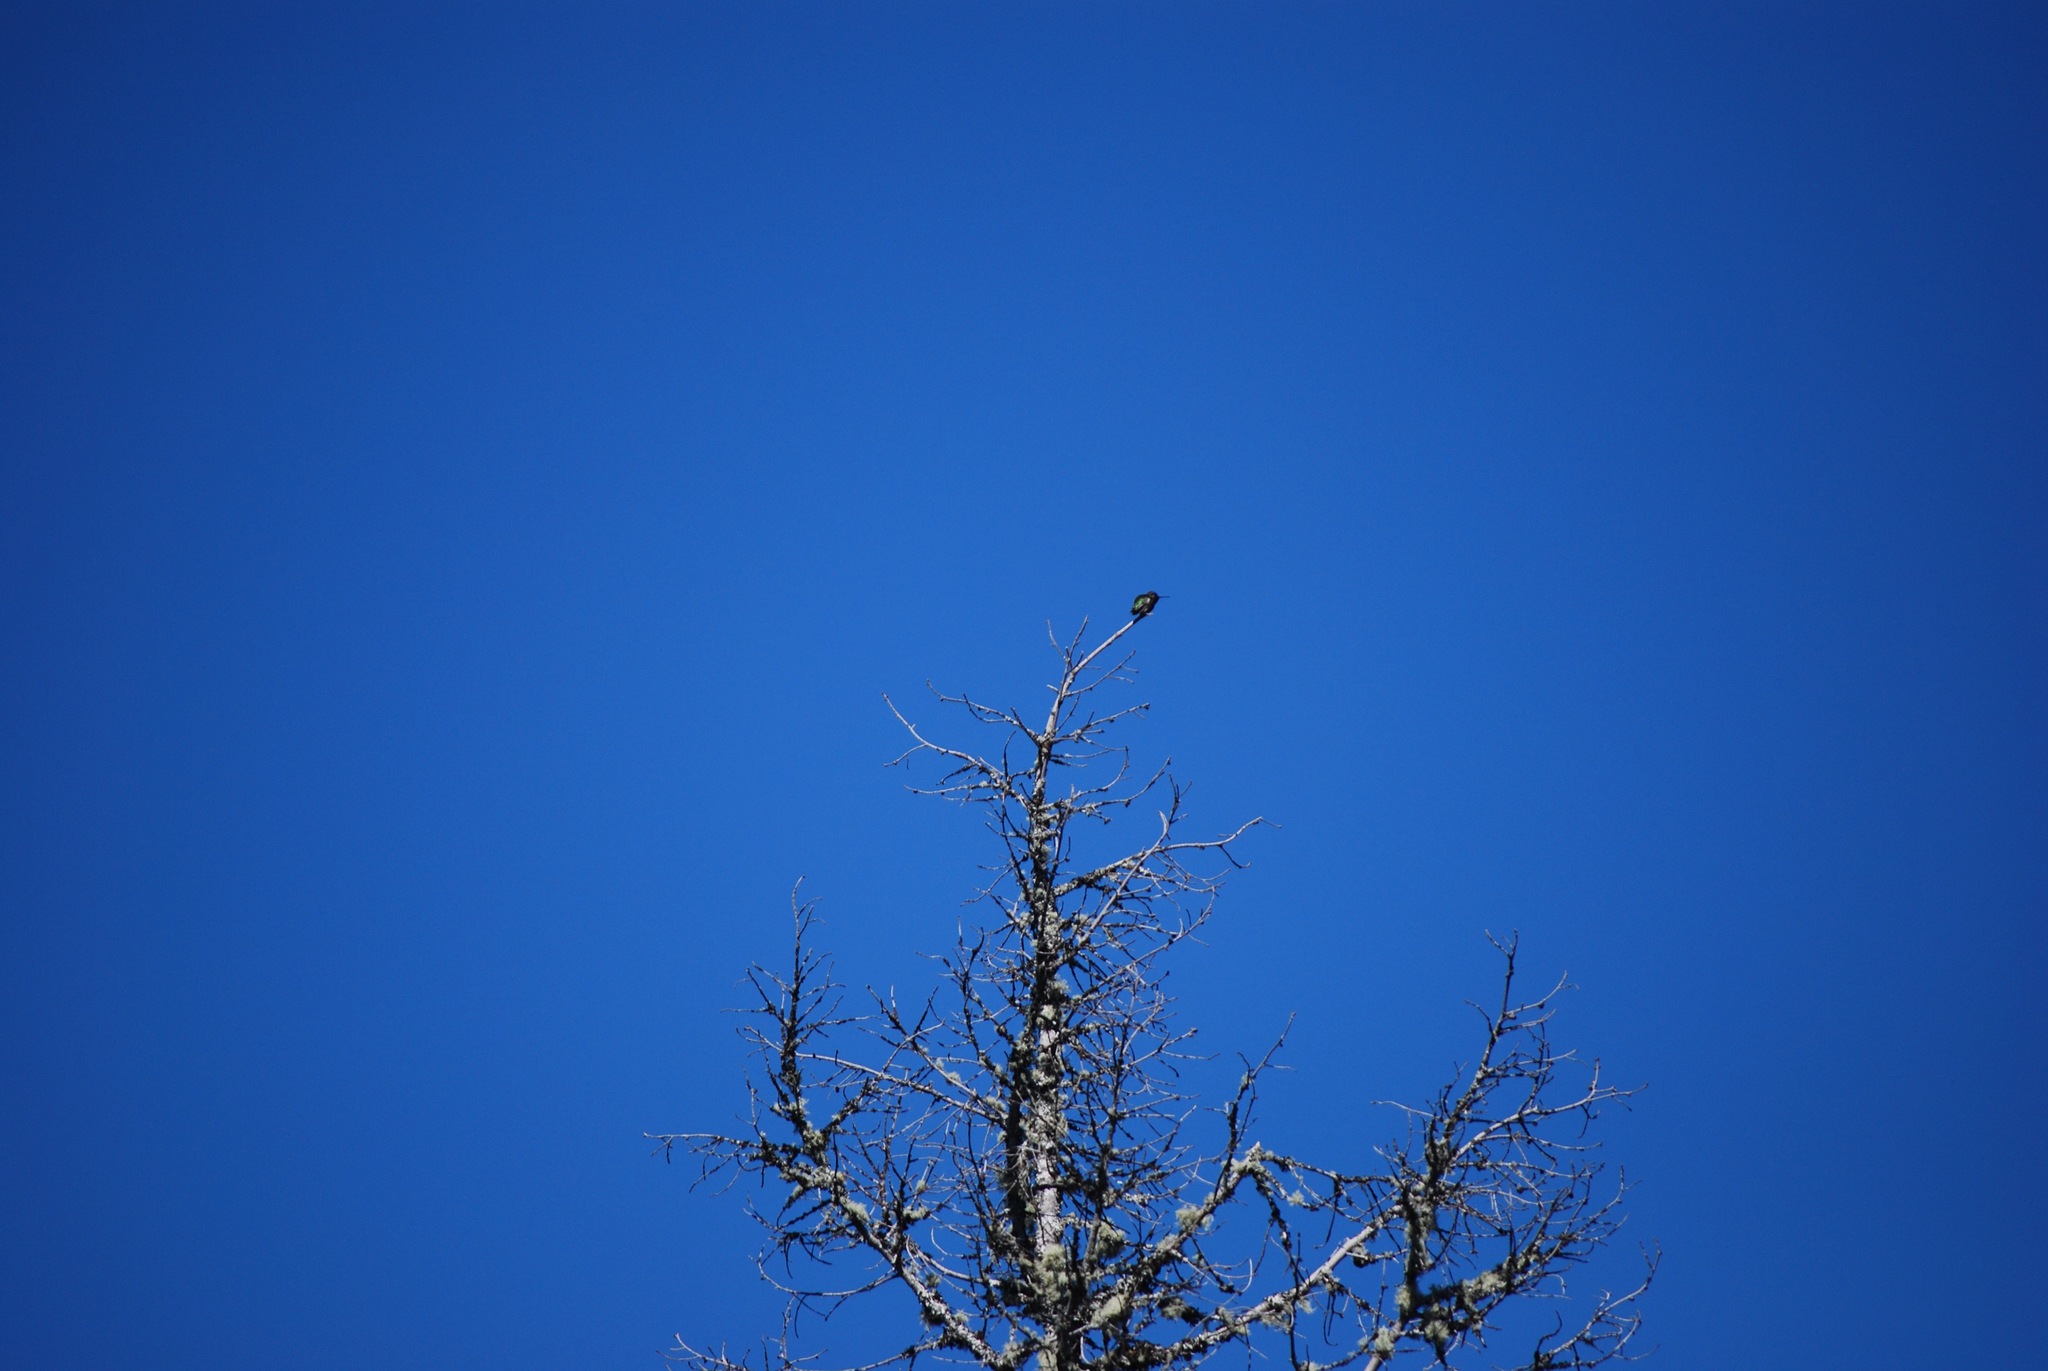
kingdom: Animalia
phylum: Chordata
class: Aves
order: Apodiformes
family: Trochilidae
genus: Calypte
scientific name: Calypte anna
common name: Anna's hummingbird
